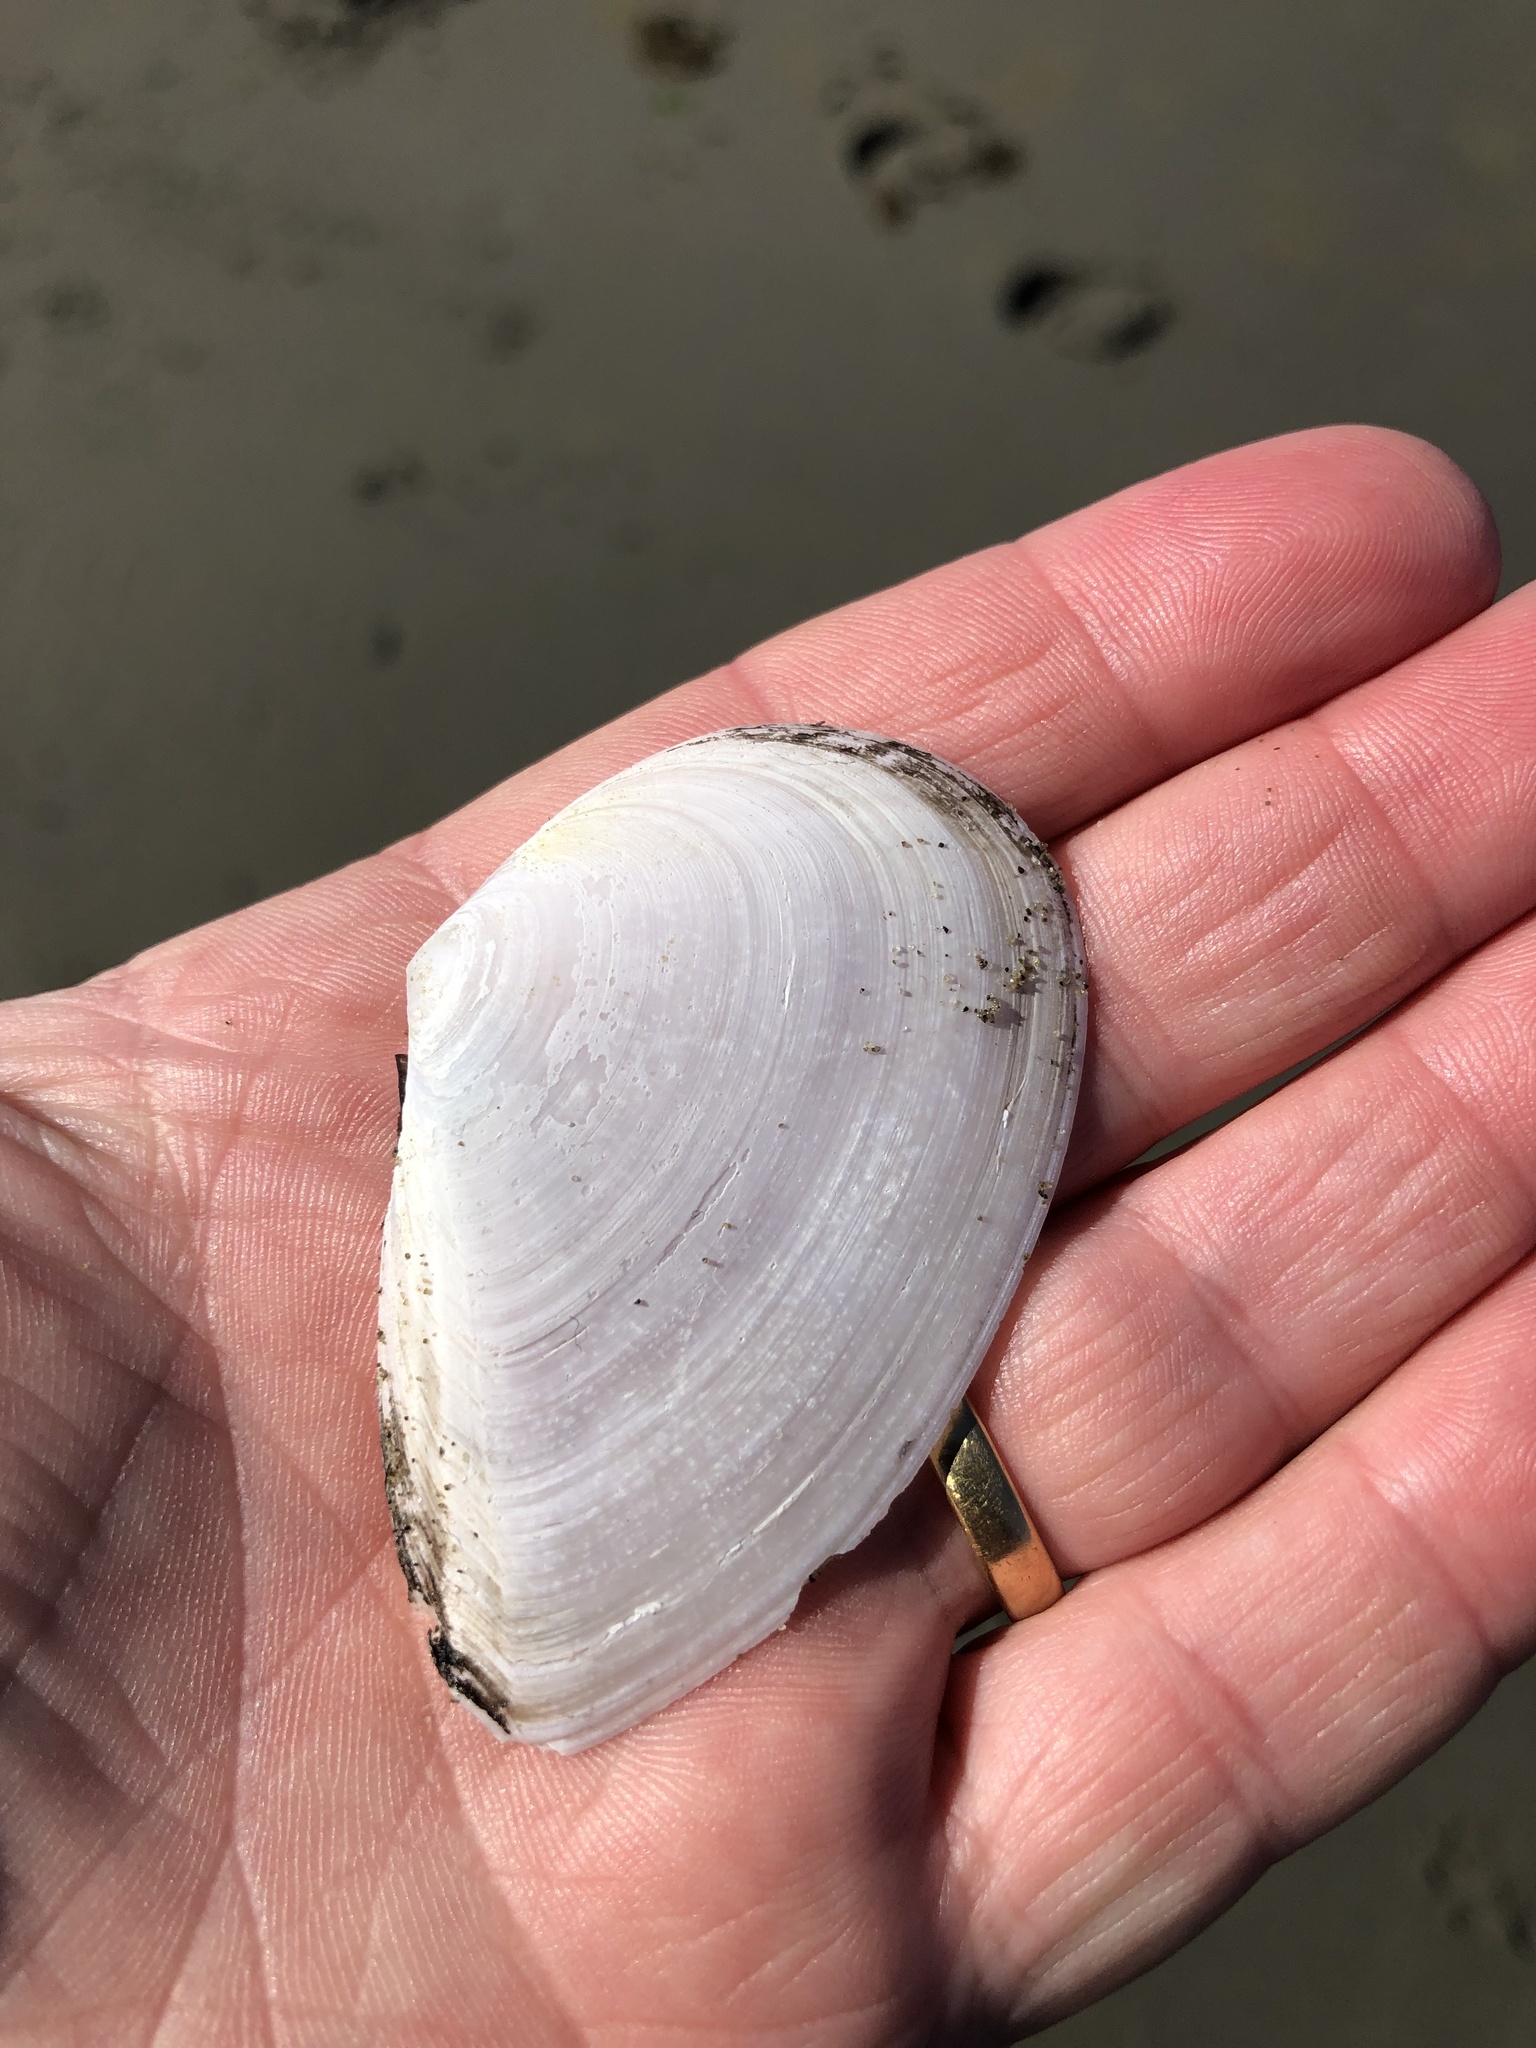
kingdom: Animalia
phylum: Mollusca
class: Bivalvia
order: Cardiida
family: Tellinidae
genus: Bartschicoma
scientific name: Bartschicoma gaimardi
